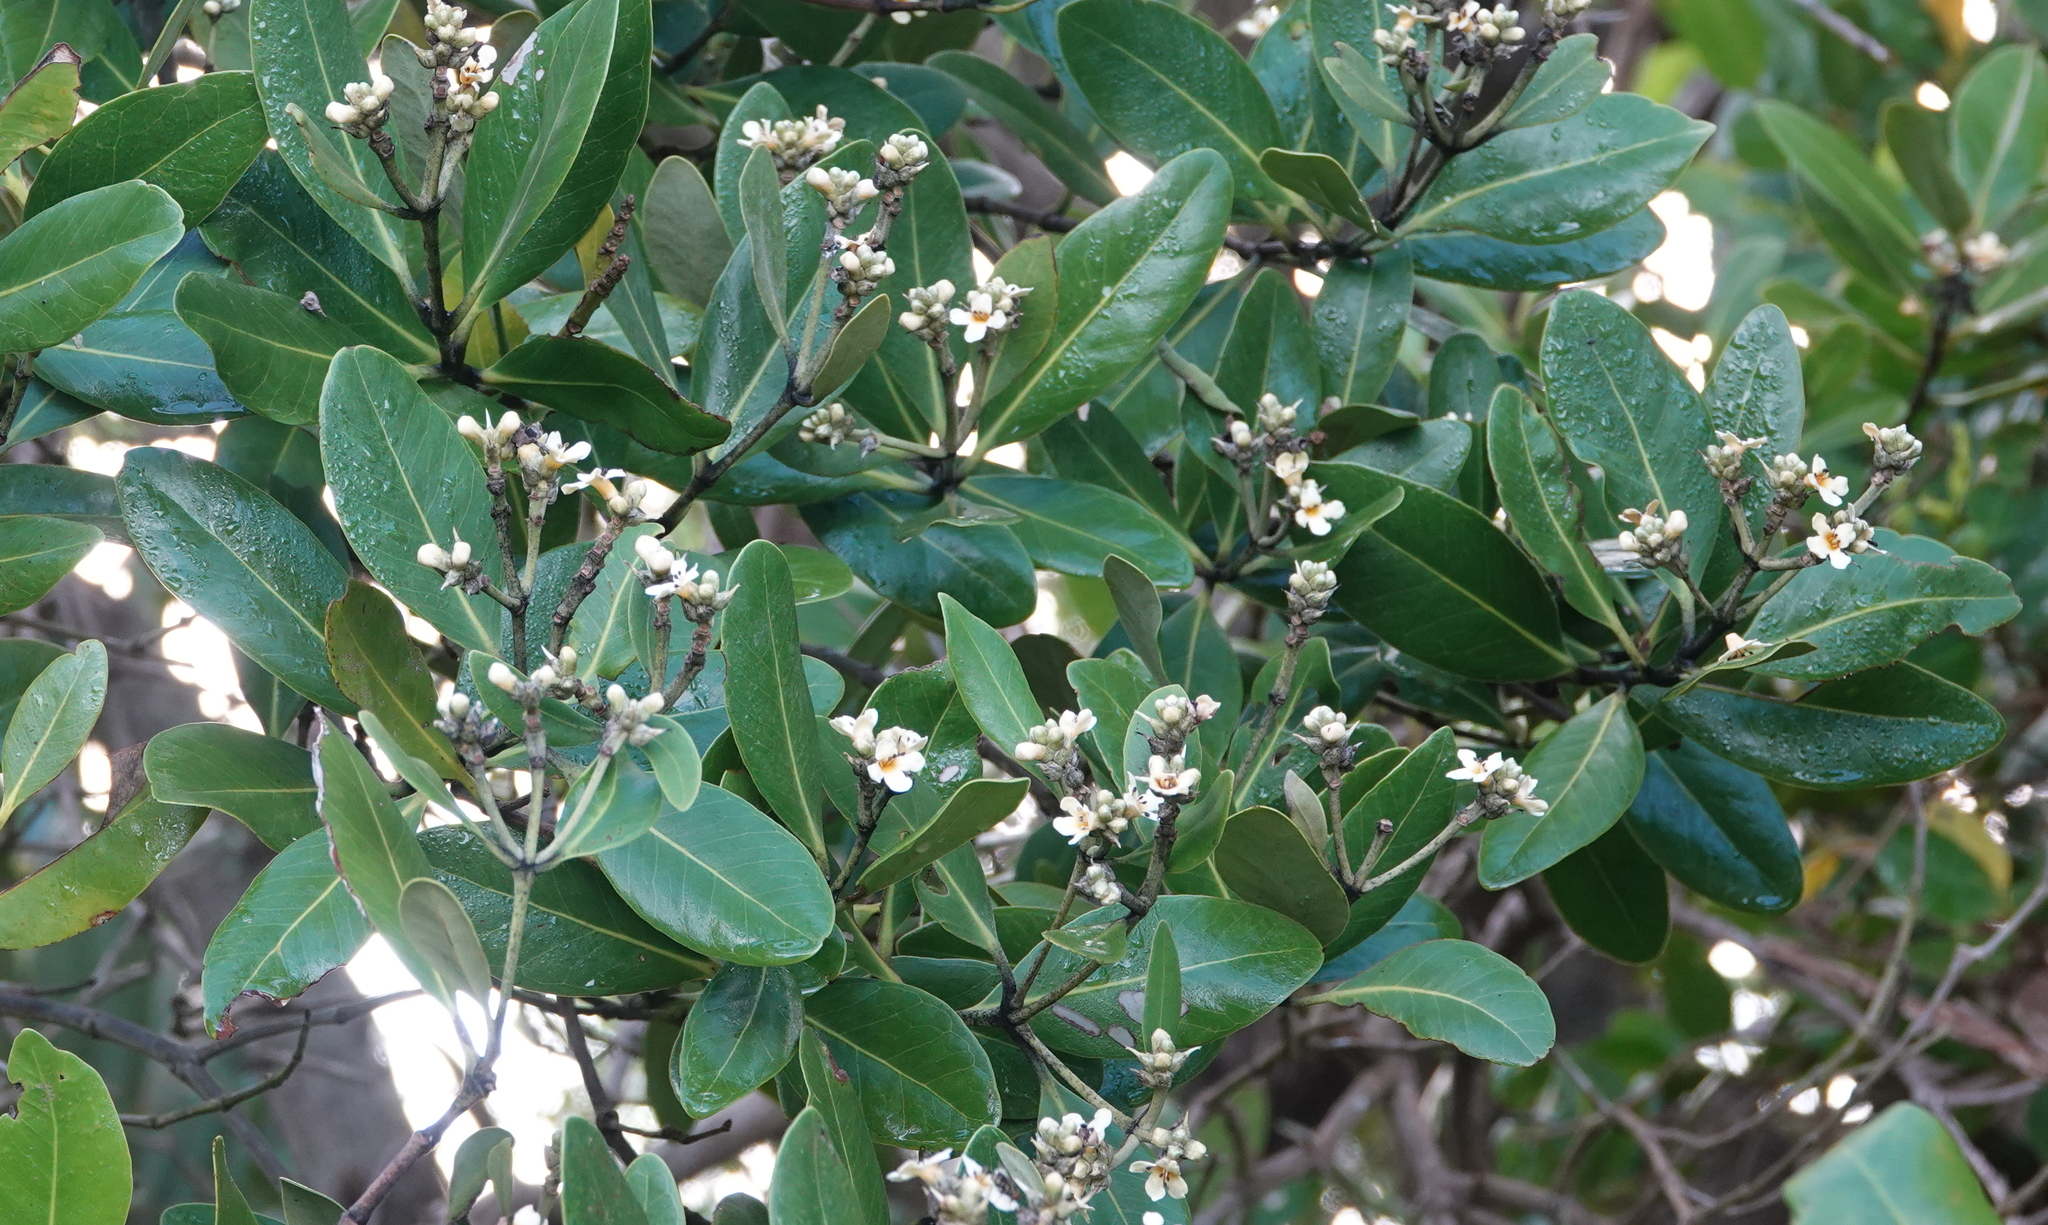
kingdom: Plantae
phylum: Tracheophyta
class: Magnoliopsida
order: Lamiales
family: Acanthaceae
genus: Avicennia
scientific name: Avicennia germinans
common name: Black mangrove
